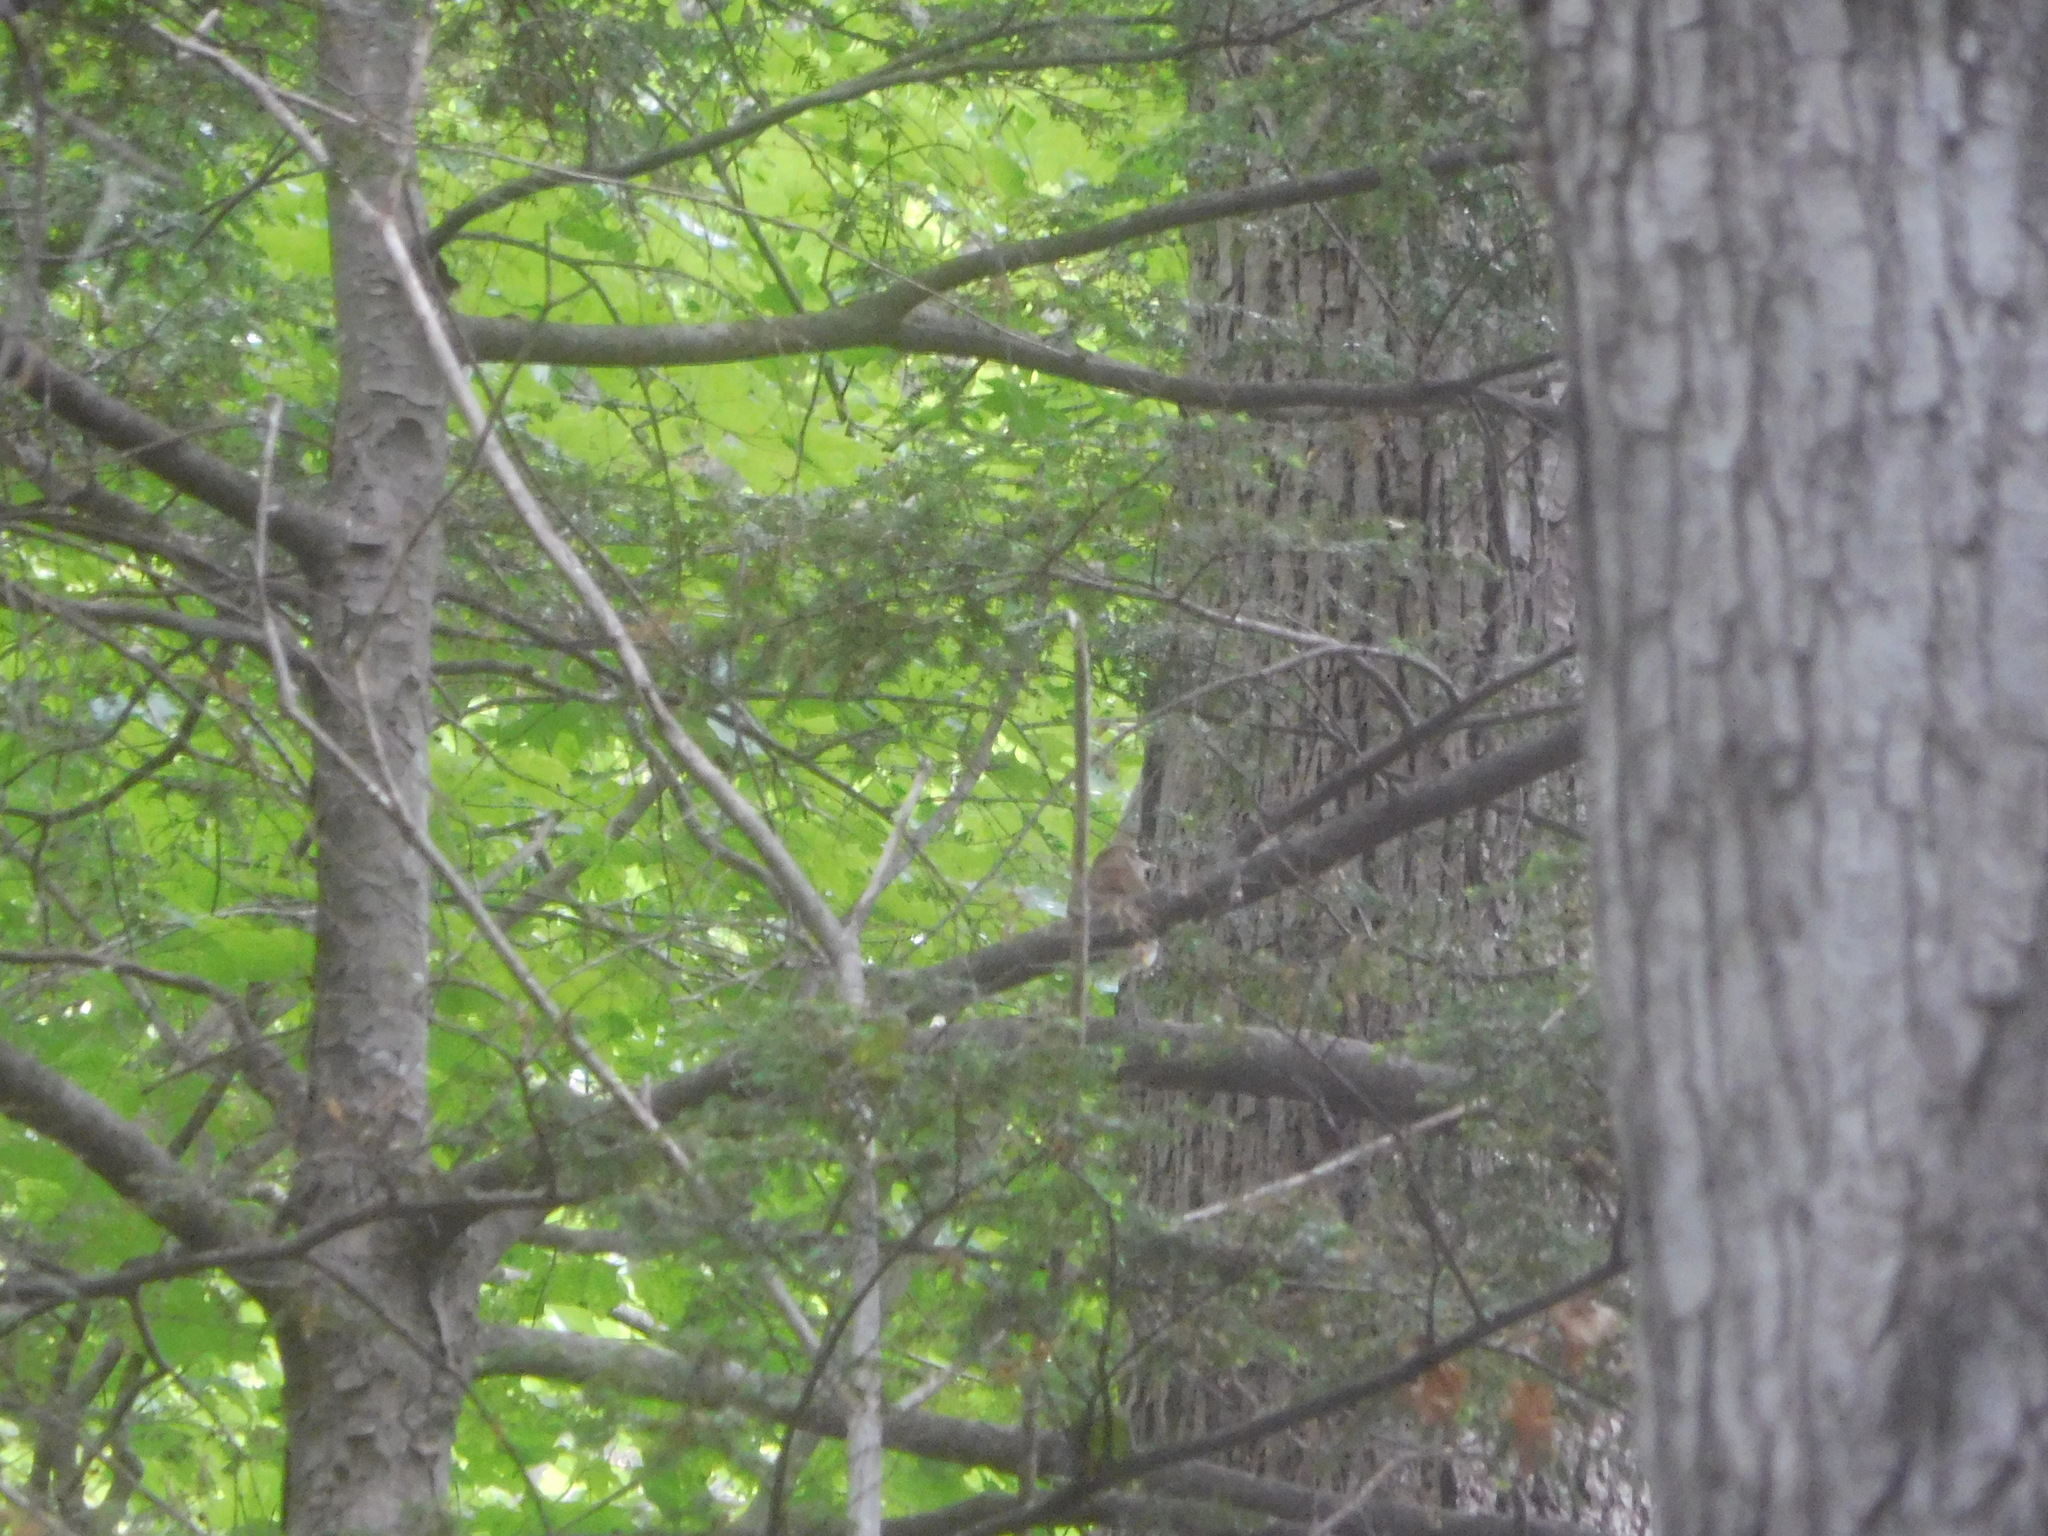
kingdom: Animalia
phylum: Chordata
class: Aves
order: Passeriformes
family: Turdidae
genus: Catharus
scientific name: Catharus fuscescens
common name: Veery
